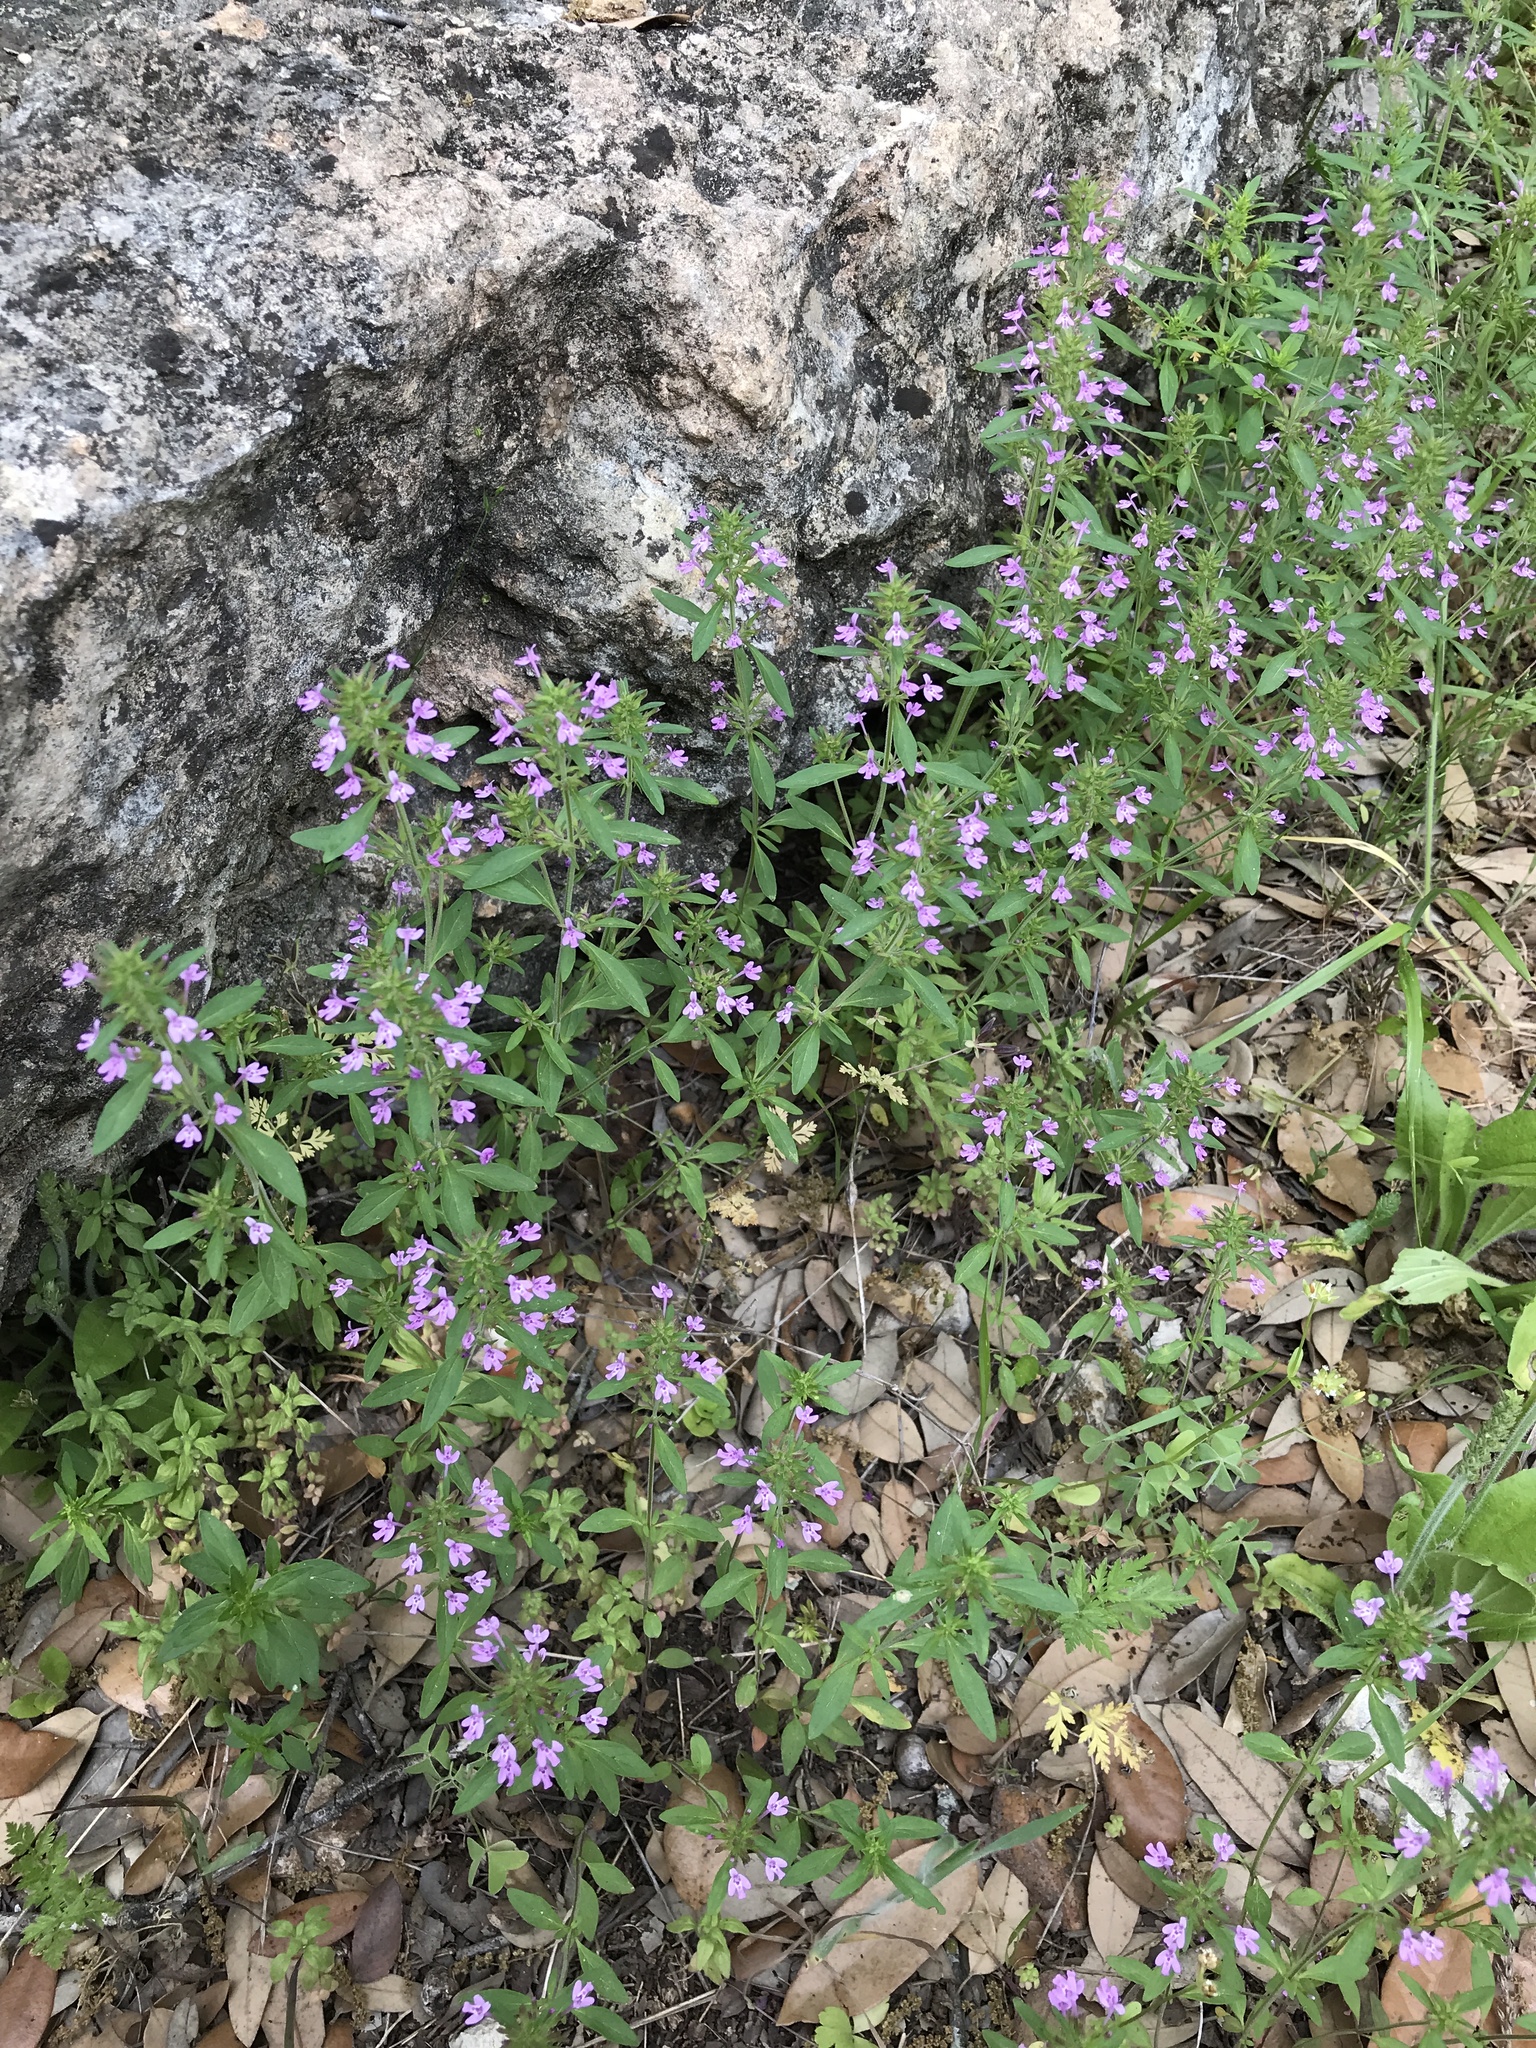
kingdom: Plantae
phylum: Tracheophyta
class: Magnoliopsida
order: Lamiales
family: Lamiaceae
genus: Hedeoma
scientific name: Hedeoma acinoides
